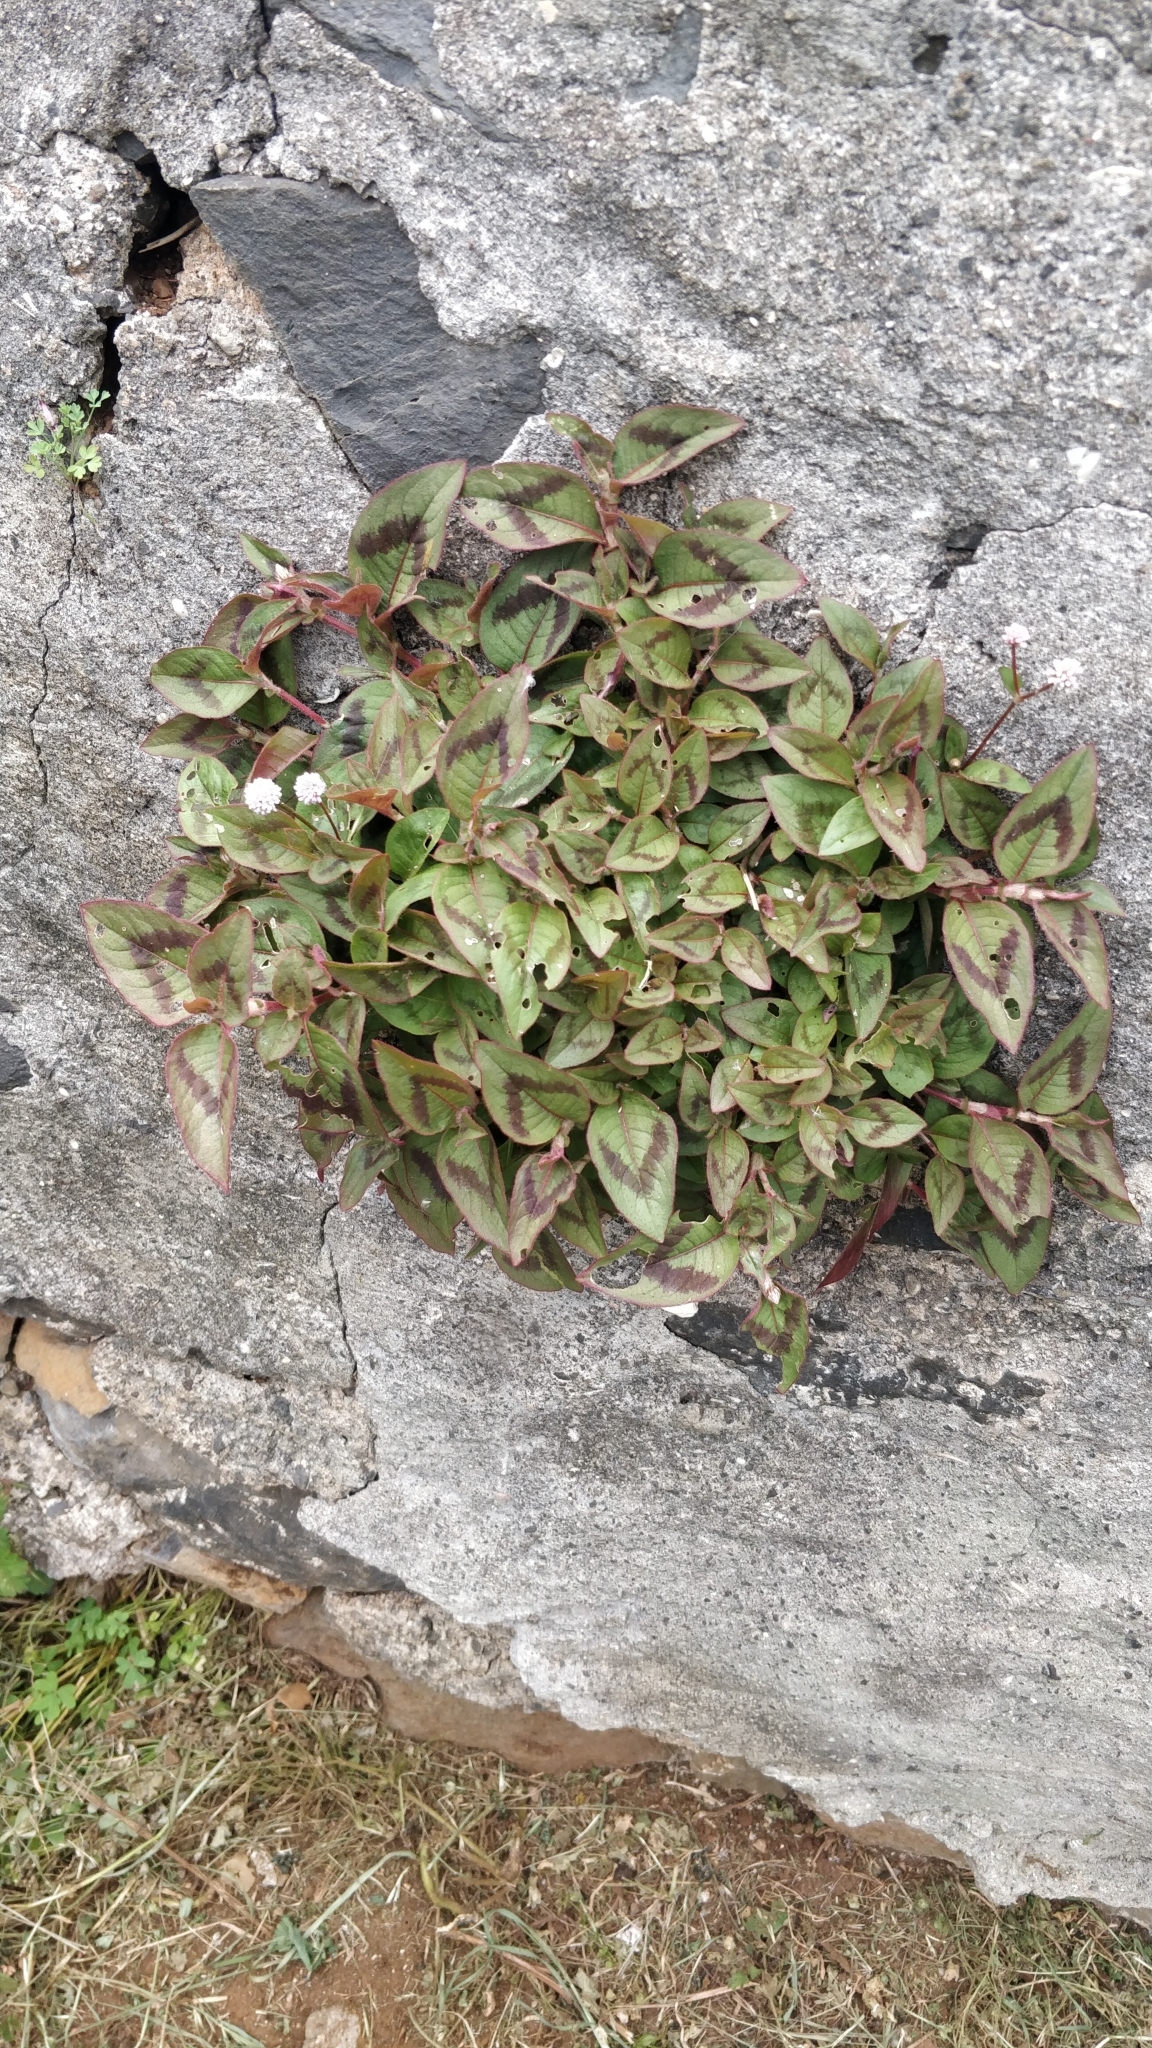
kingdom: Plantae
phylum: Tracheophyta
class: Magnoliopsida
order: Caryophyllales
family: Polygonaceae
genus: Persicaria
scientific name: Persicaria capitata
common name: Pinkhead smartweed
